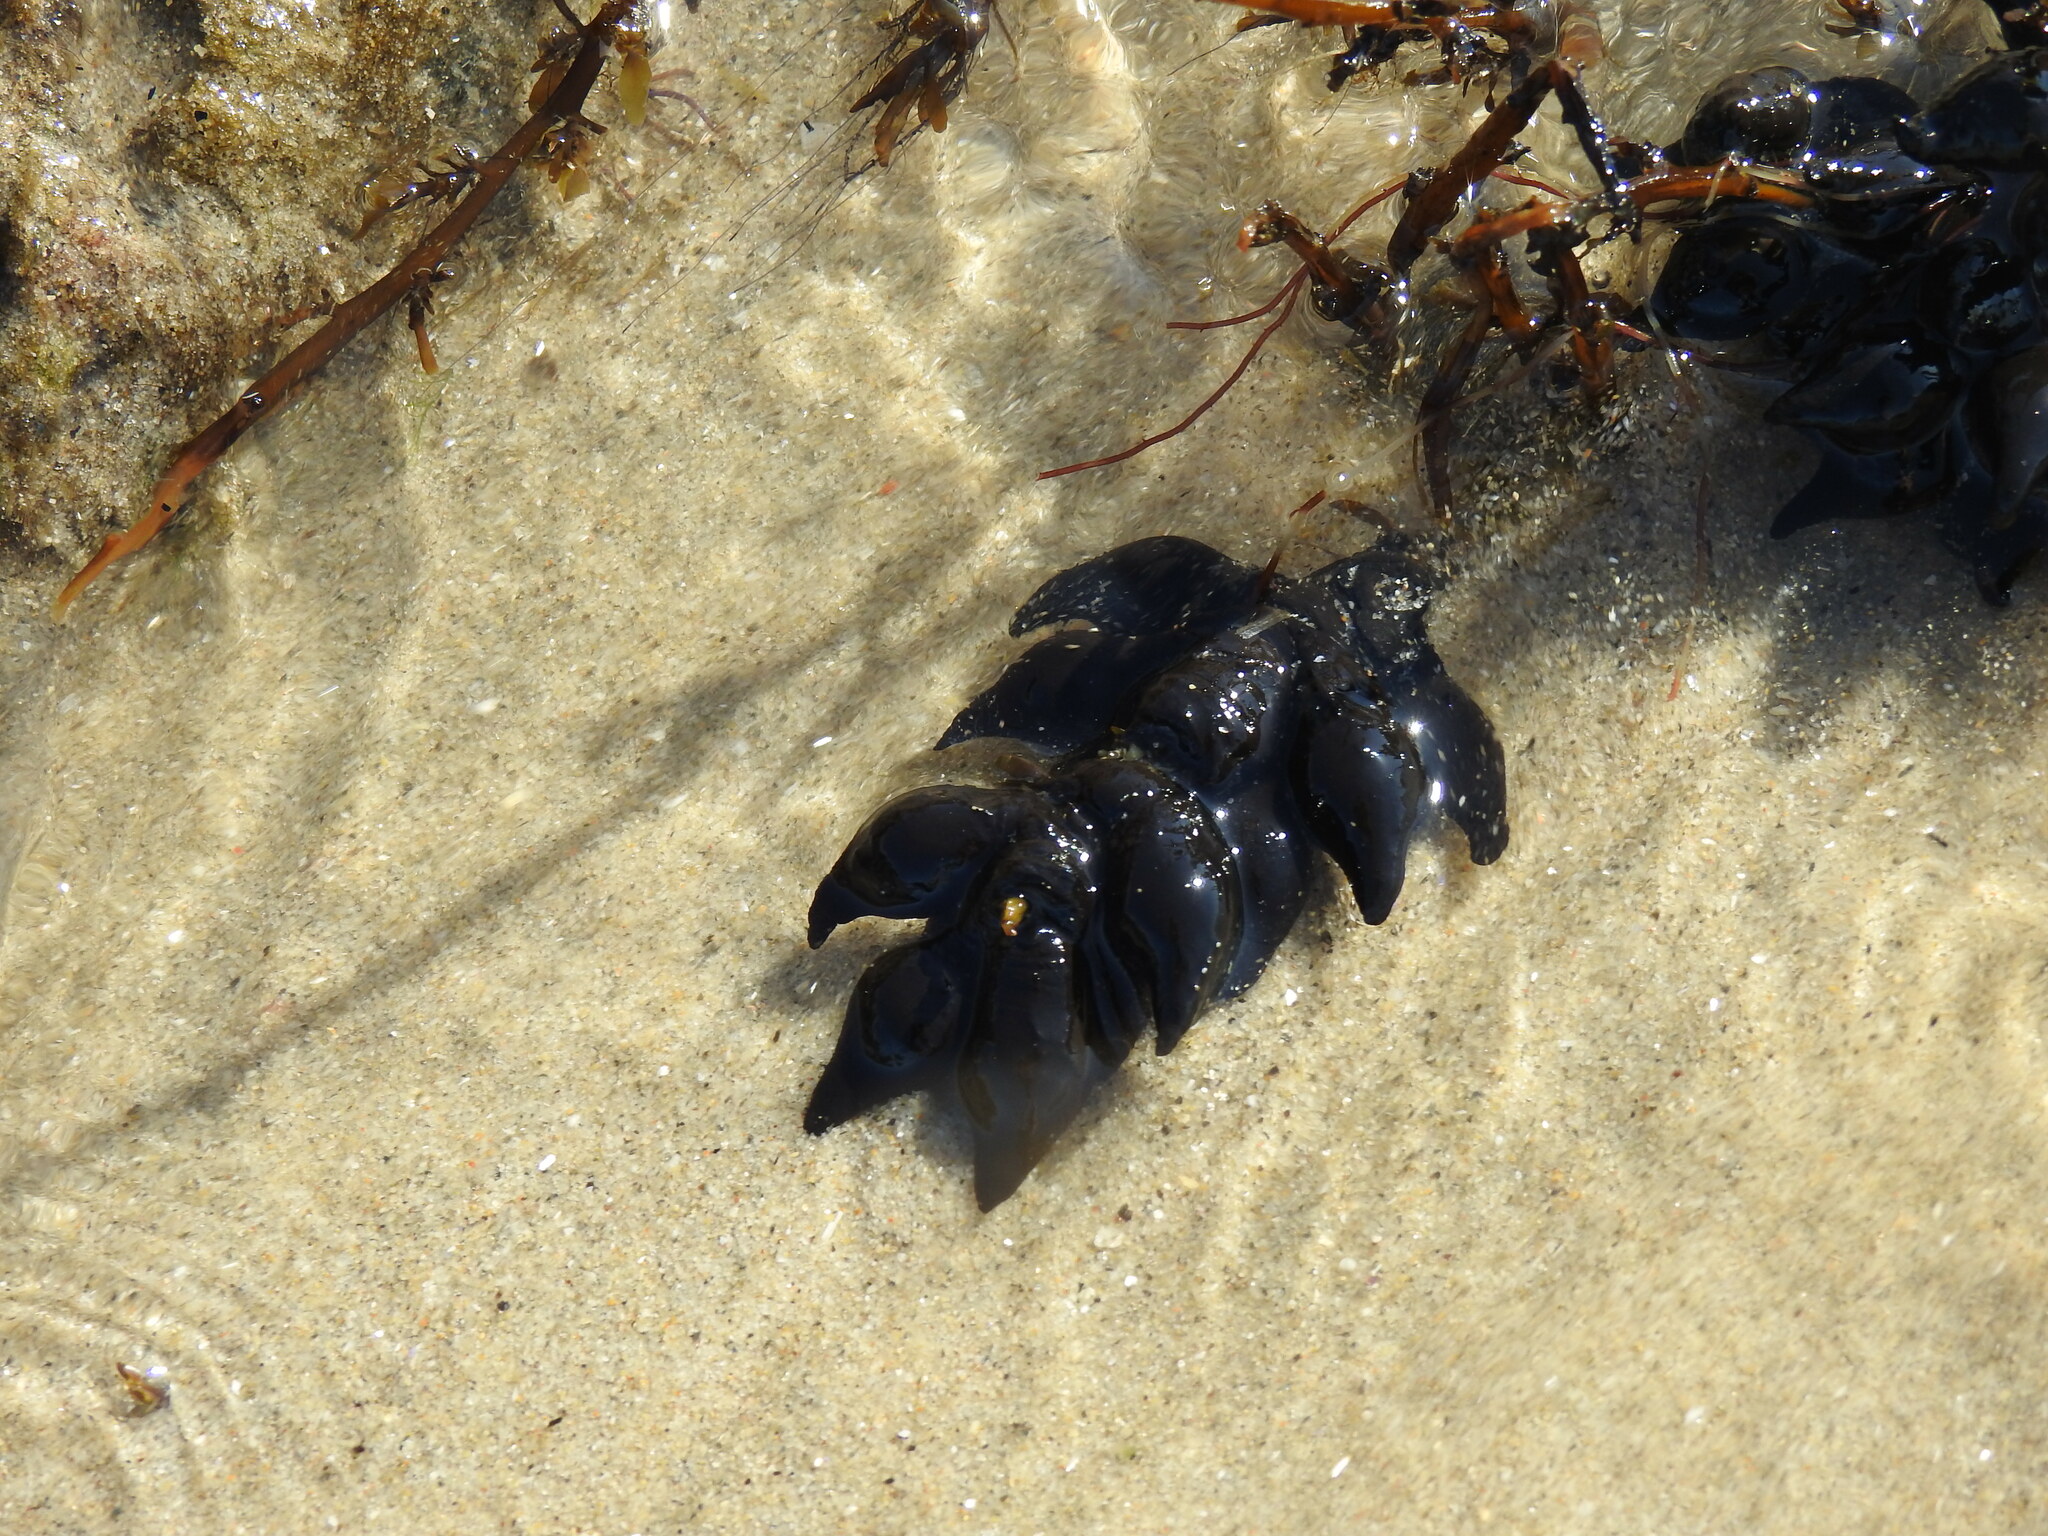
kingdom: Animalia
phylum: Mollusca
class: Cephalopoda
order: Sepiida
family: Sepiidae
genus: Sepia
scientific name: Sepia officinalis
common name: Common cuttlefish
